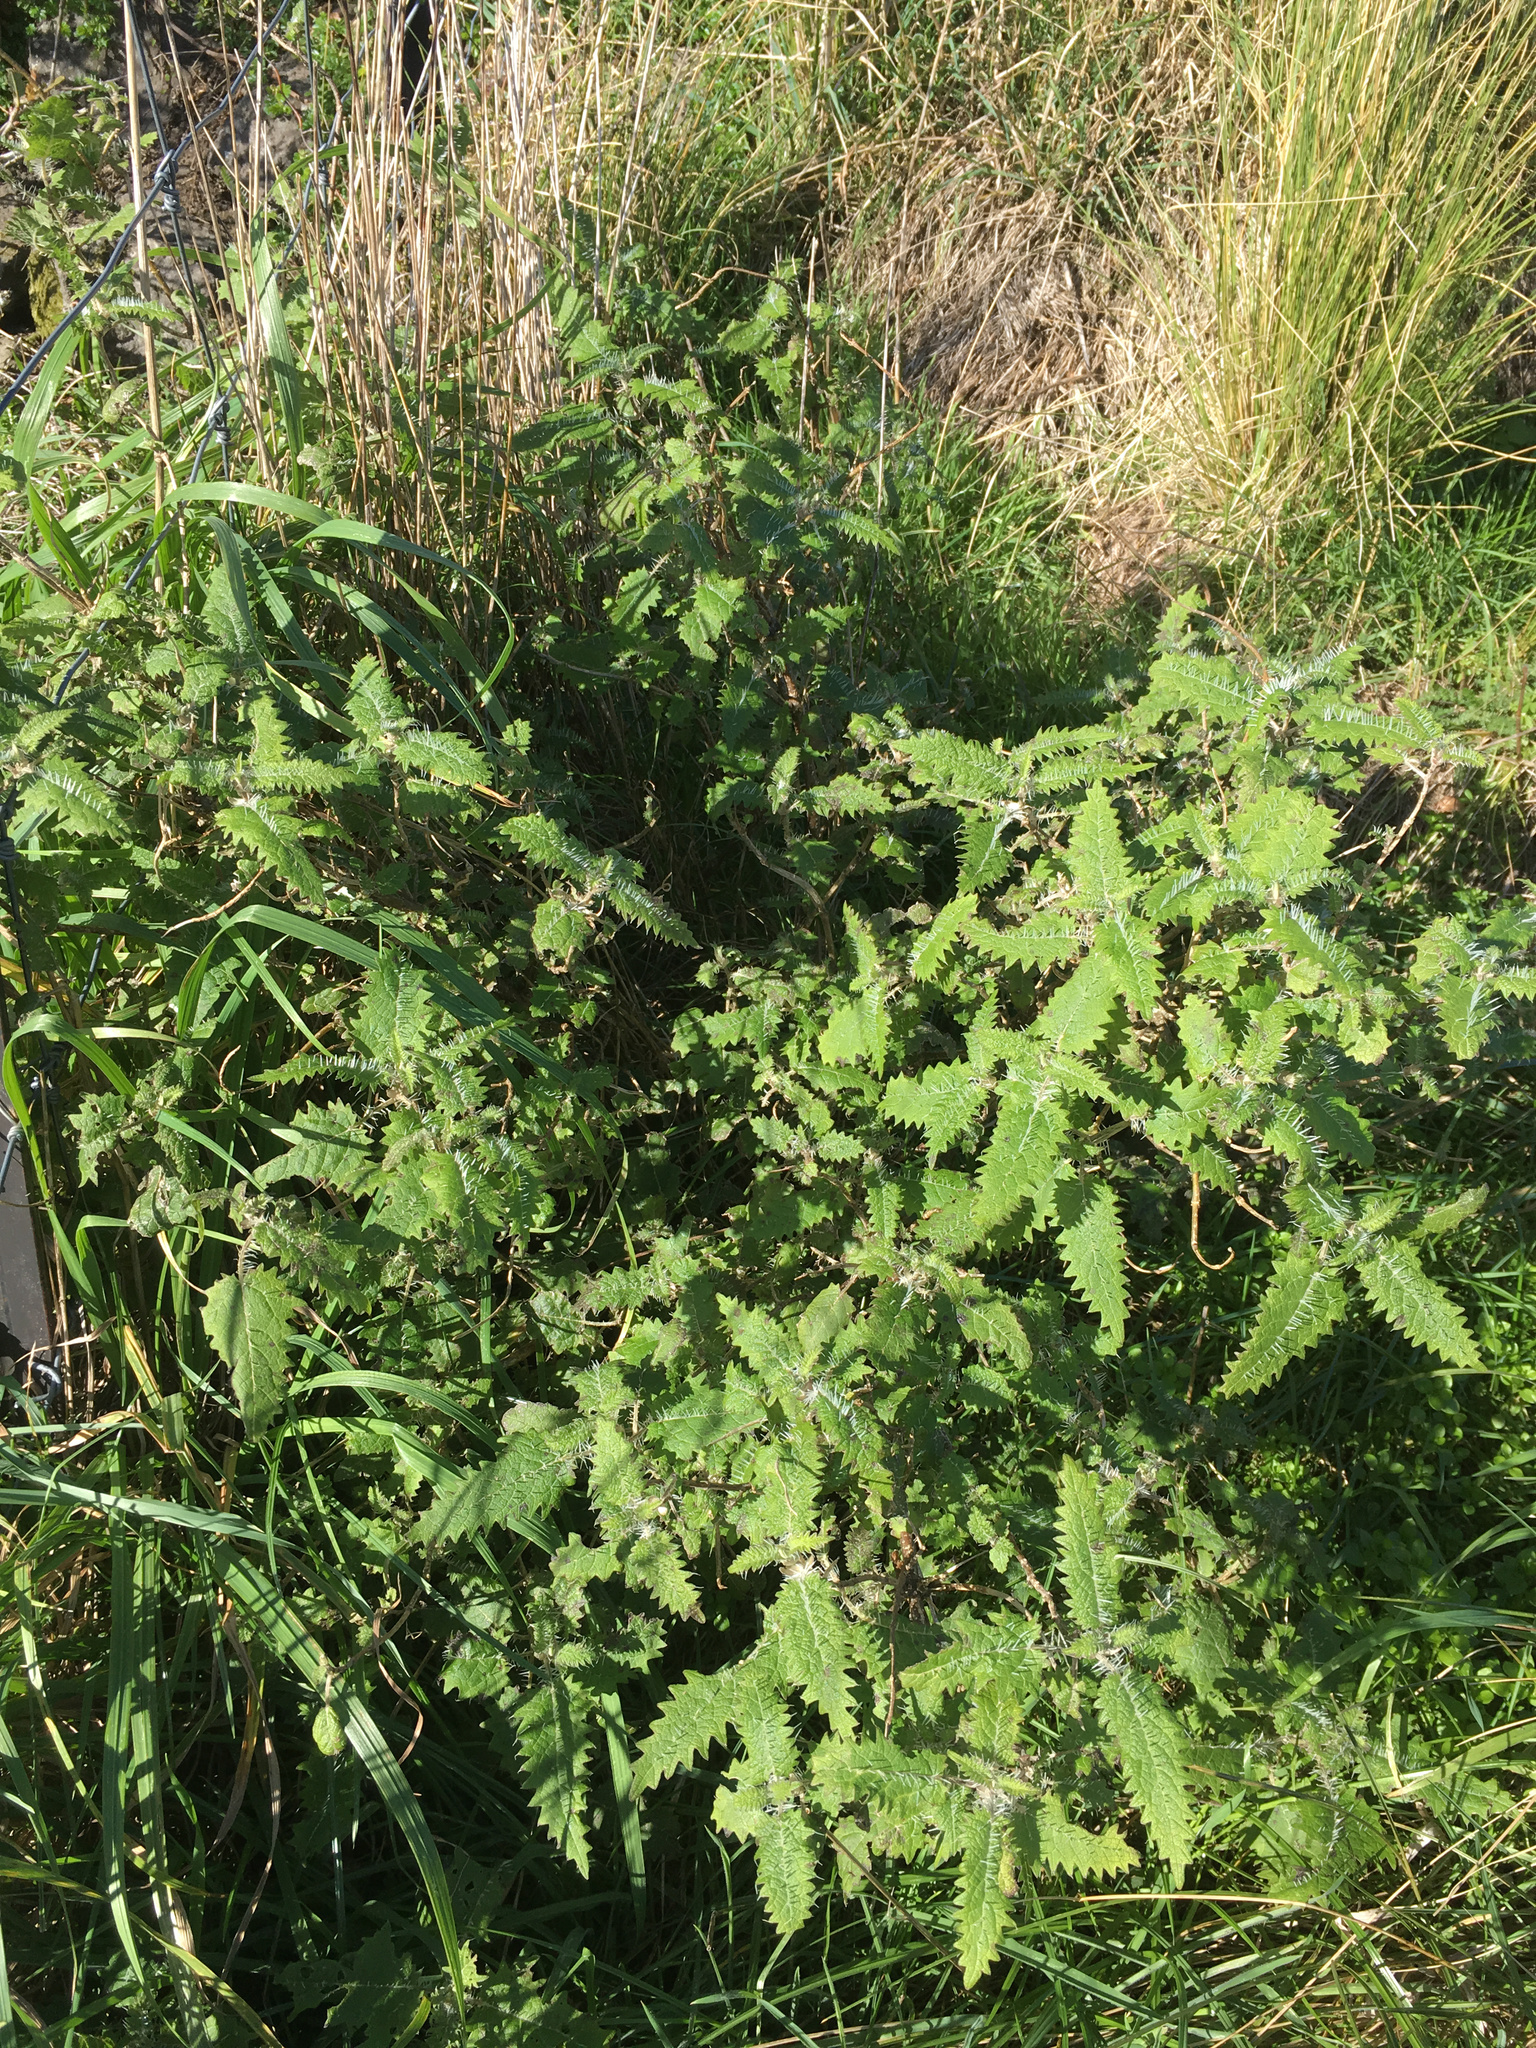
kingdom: Plantae
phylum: Tracheophyta
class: Magnoliopsida
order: Rosales
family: Urticaceae
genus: Urtica
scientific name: Urtica ferox
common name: Tree nettle
